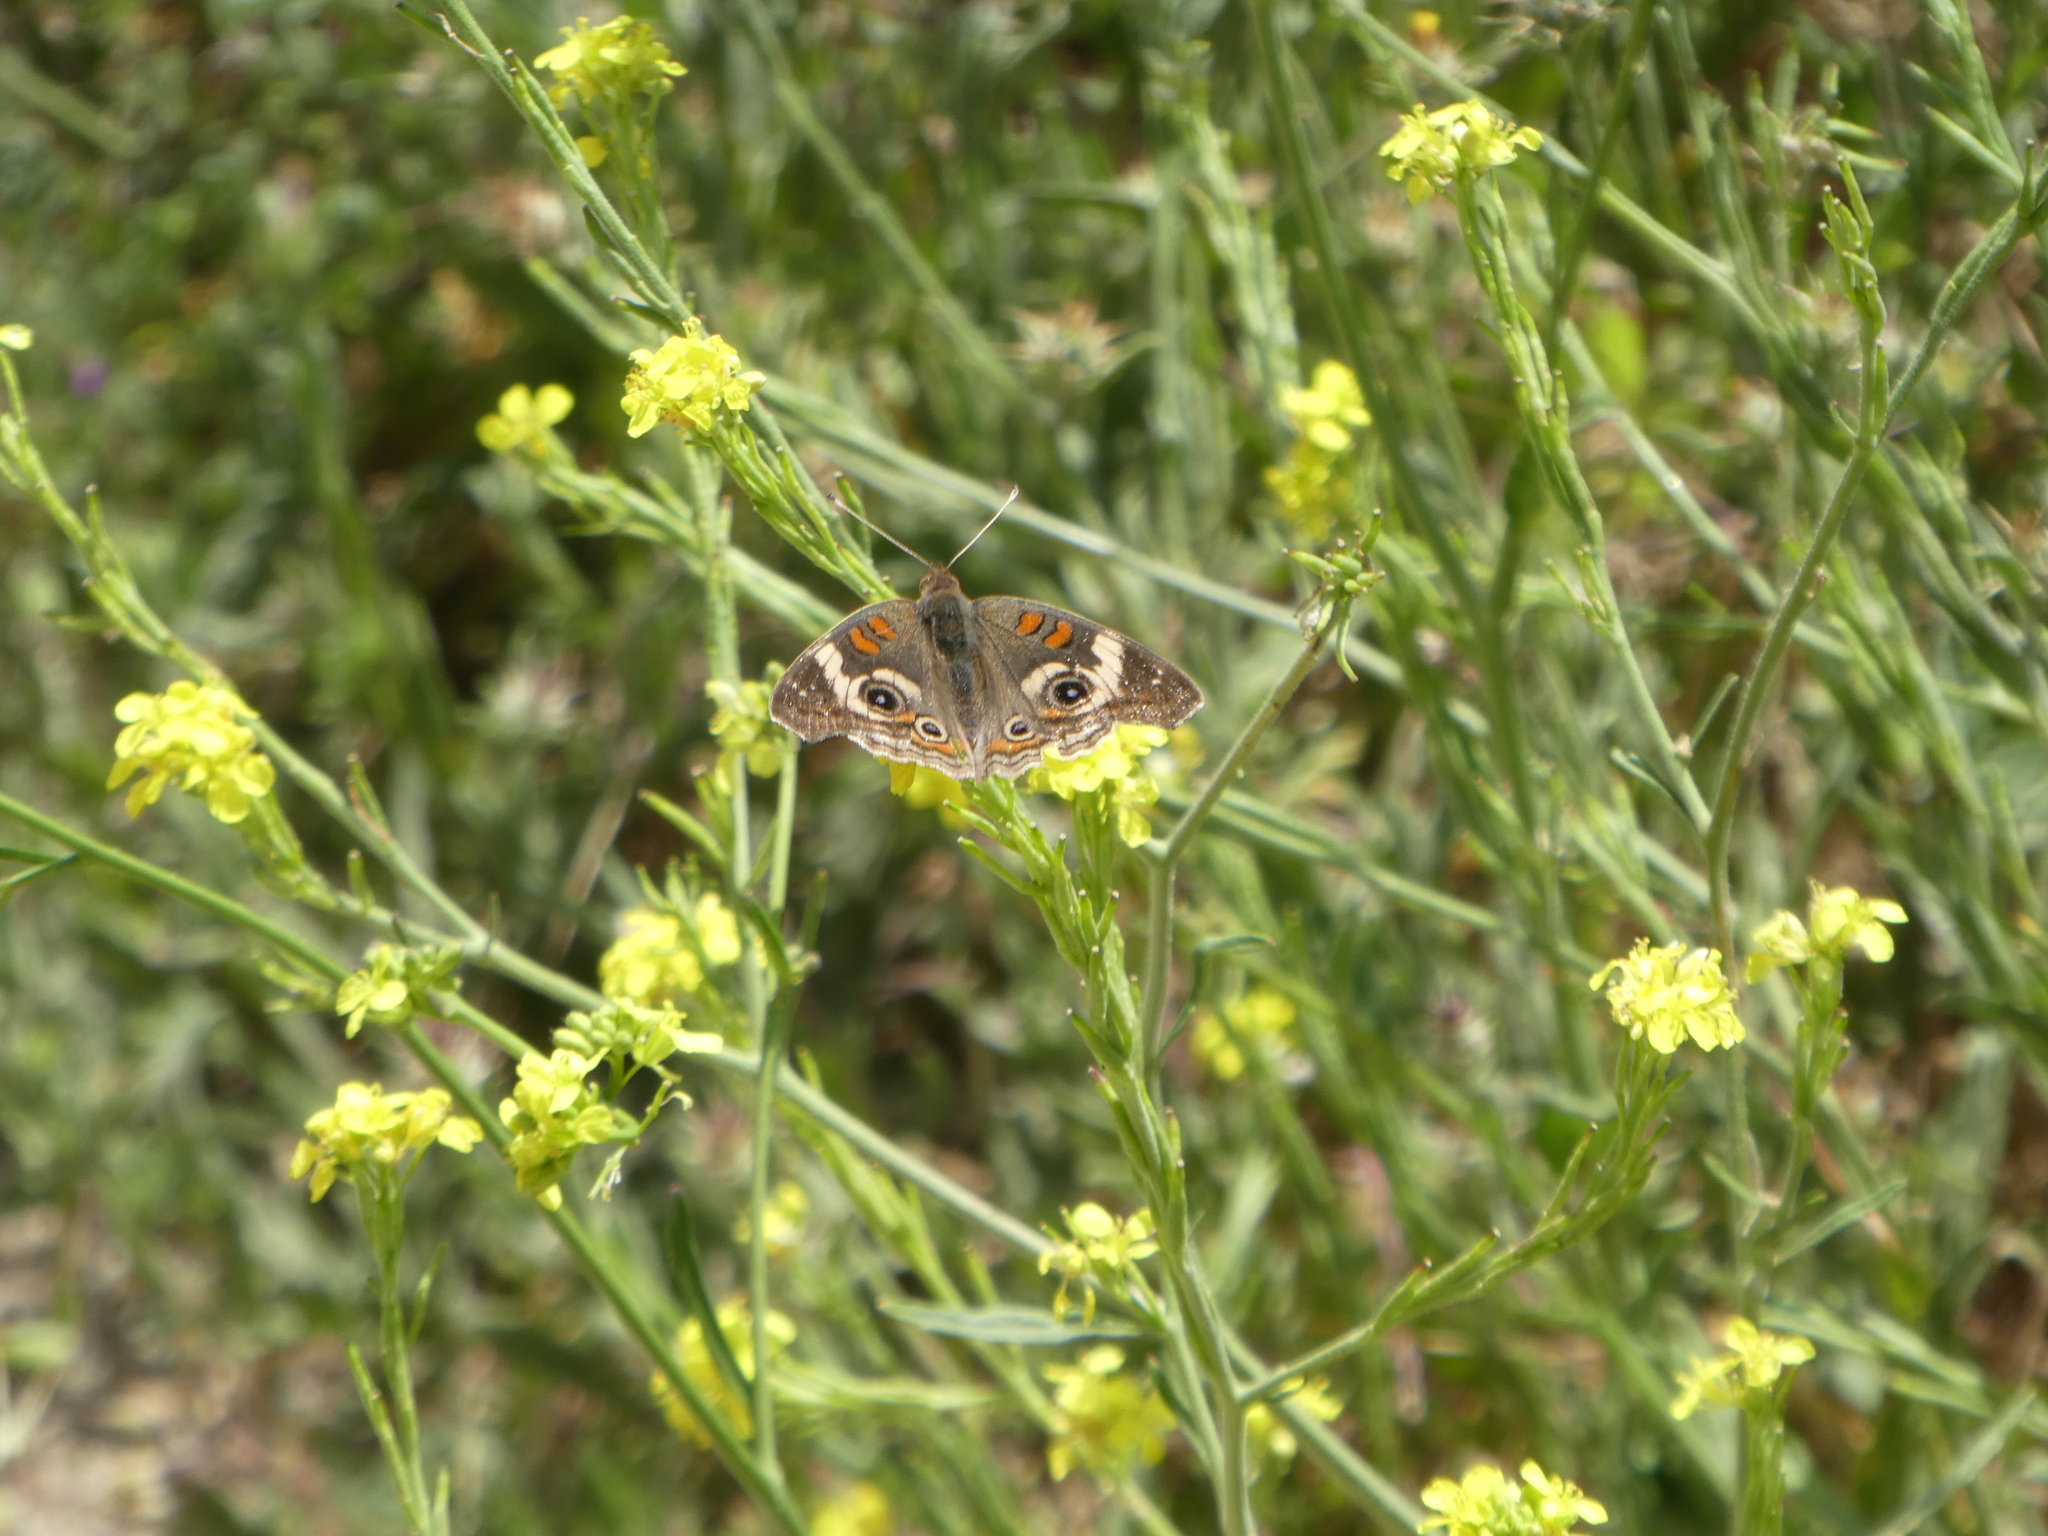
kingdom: Animalia
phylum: Arthropoda
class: Insecta
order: Lepidoptera
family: Nymphalidae
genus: Junonia
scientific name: Junonia grisea
